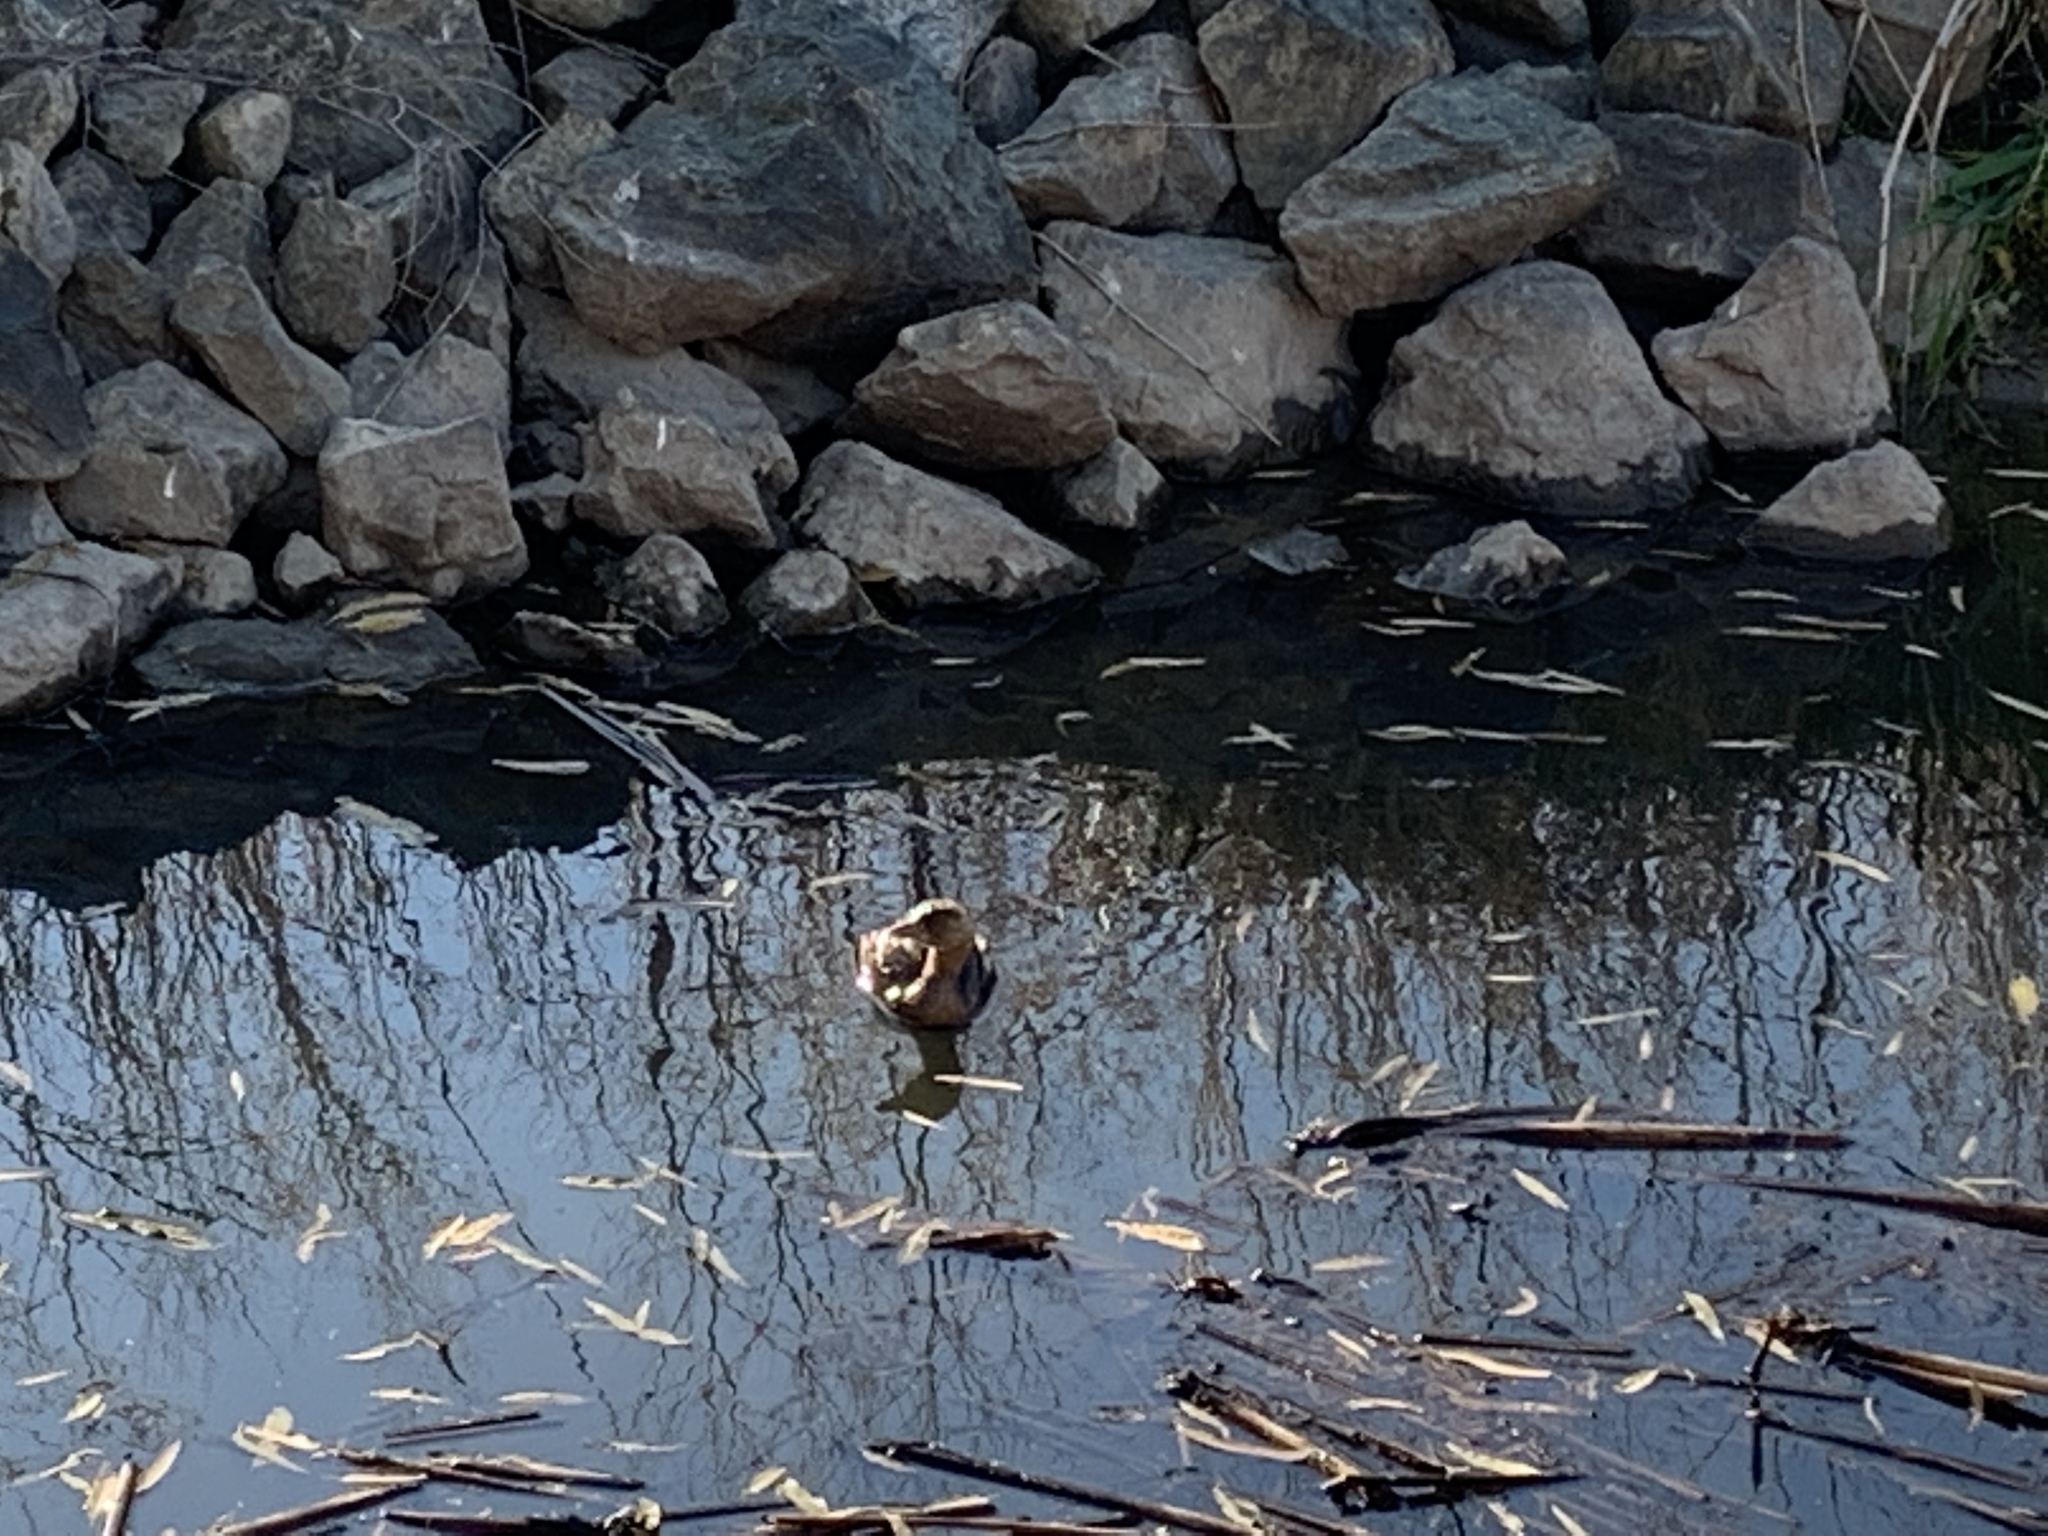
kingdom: Animalia
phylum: Chordata
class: Aves
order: Podicipediformes
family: Podicipedidae
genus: Podilymbus
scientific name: Podilymbus podiceps
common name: Pied-billed grebe
